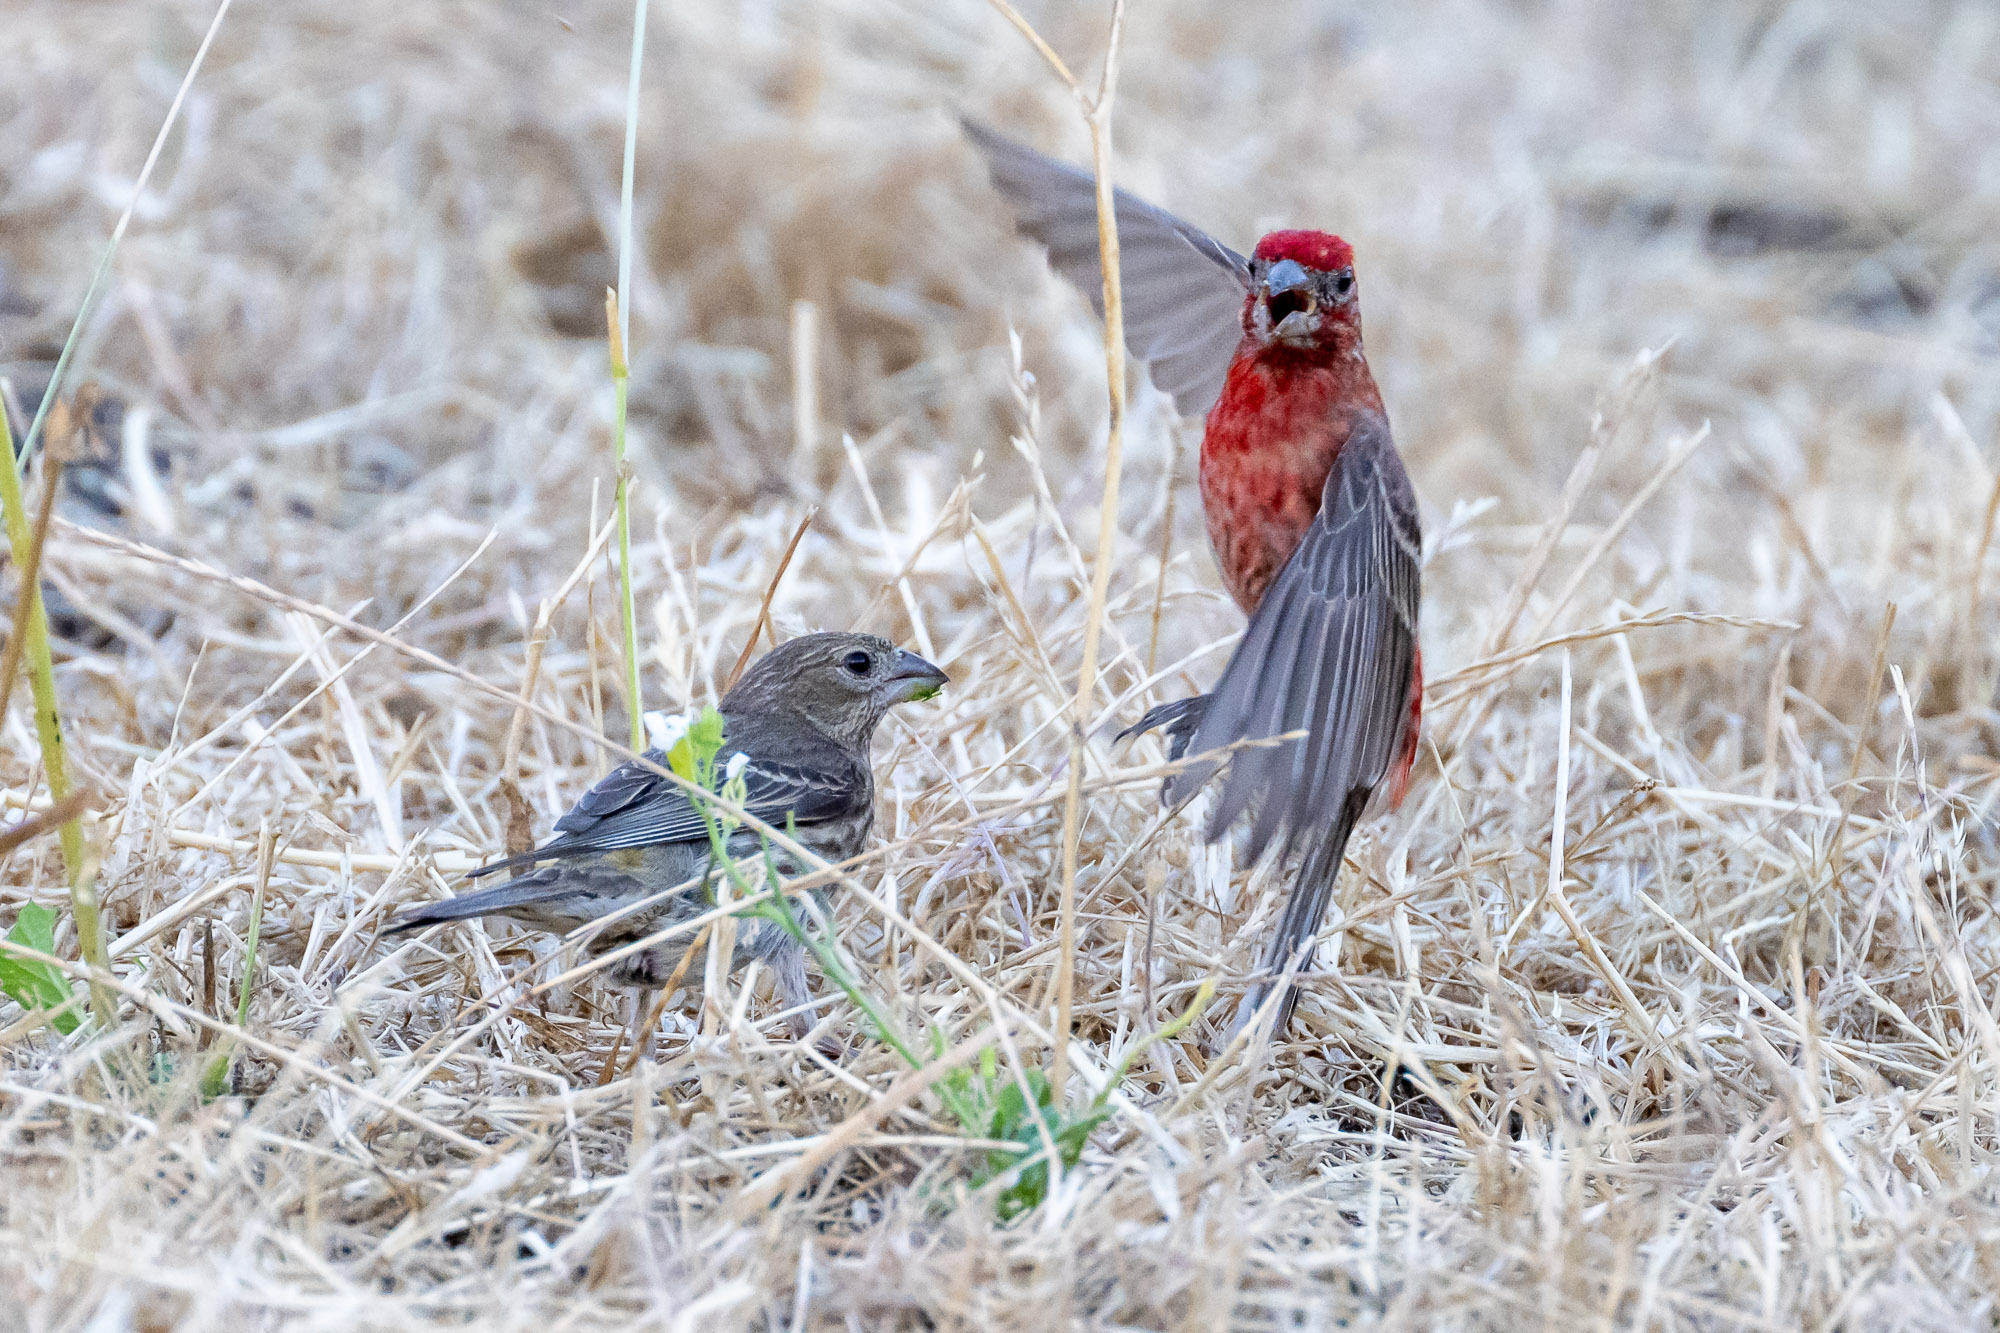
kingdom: Animalia
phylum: Chordata
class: Aves
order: Passeriformes
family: Fringillidae
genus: Haemorhous
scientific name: Haemorhous mexicanus
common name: House finch
